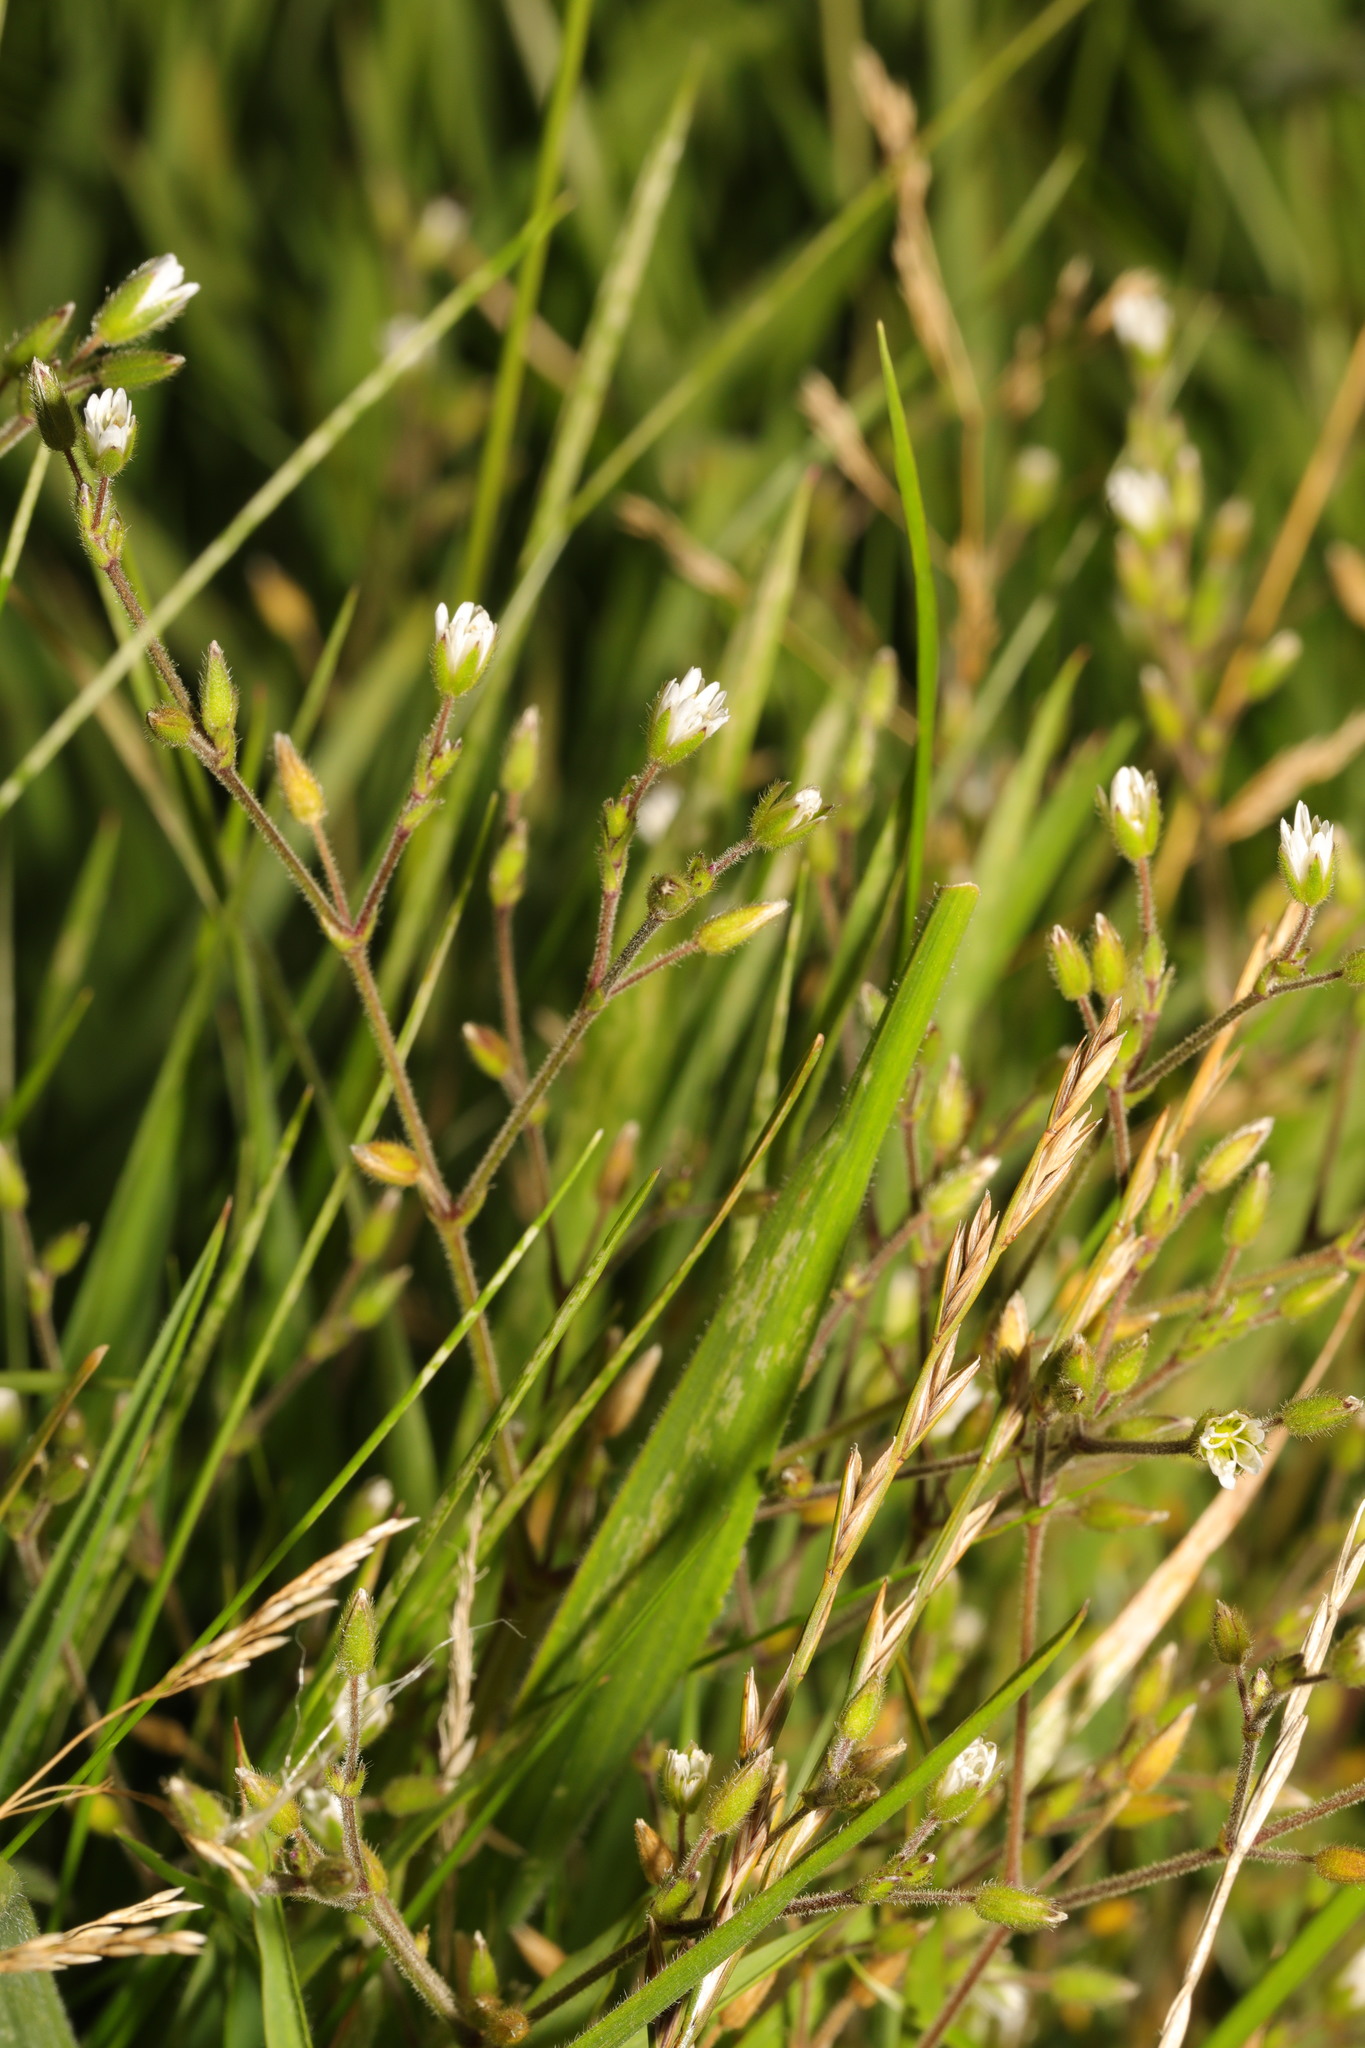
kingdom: Plantae
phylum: Tracheophyta
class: Magnoliopsida
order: Caryophyllales
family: Caryophyllaceae
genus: Cerastium
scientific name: Cerastium fontanum
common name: Common mouse-ear
